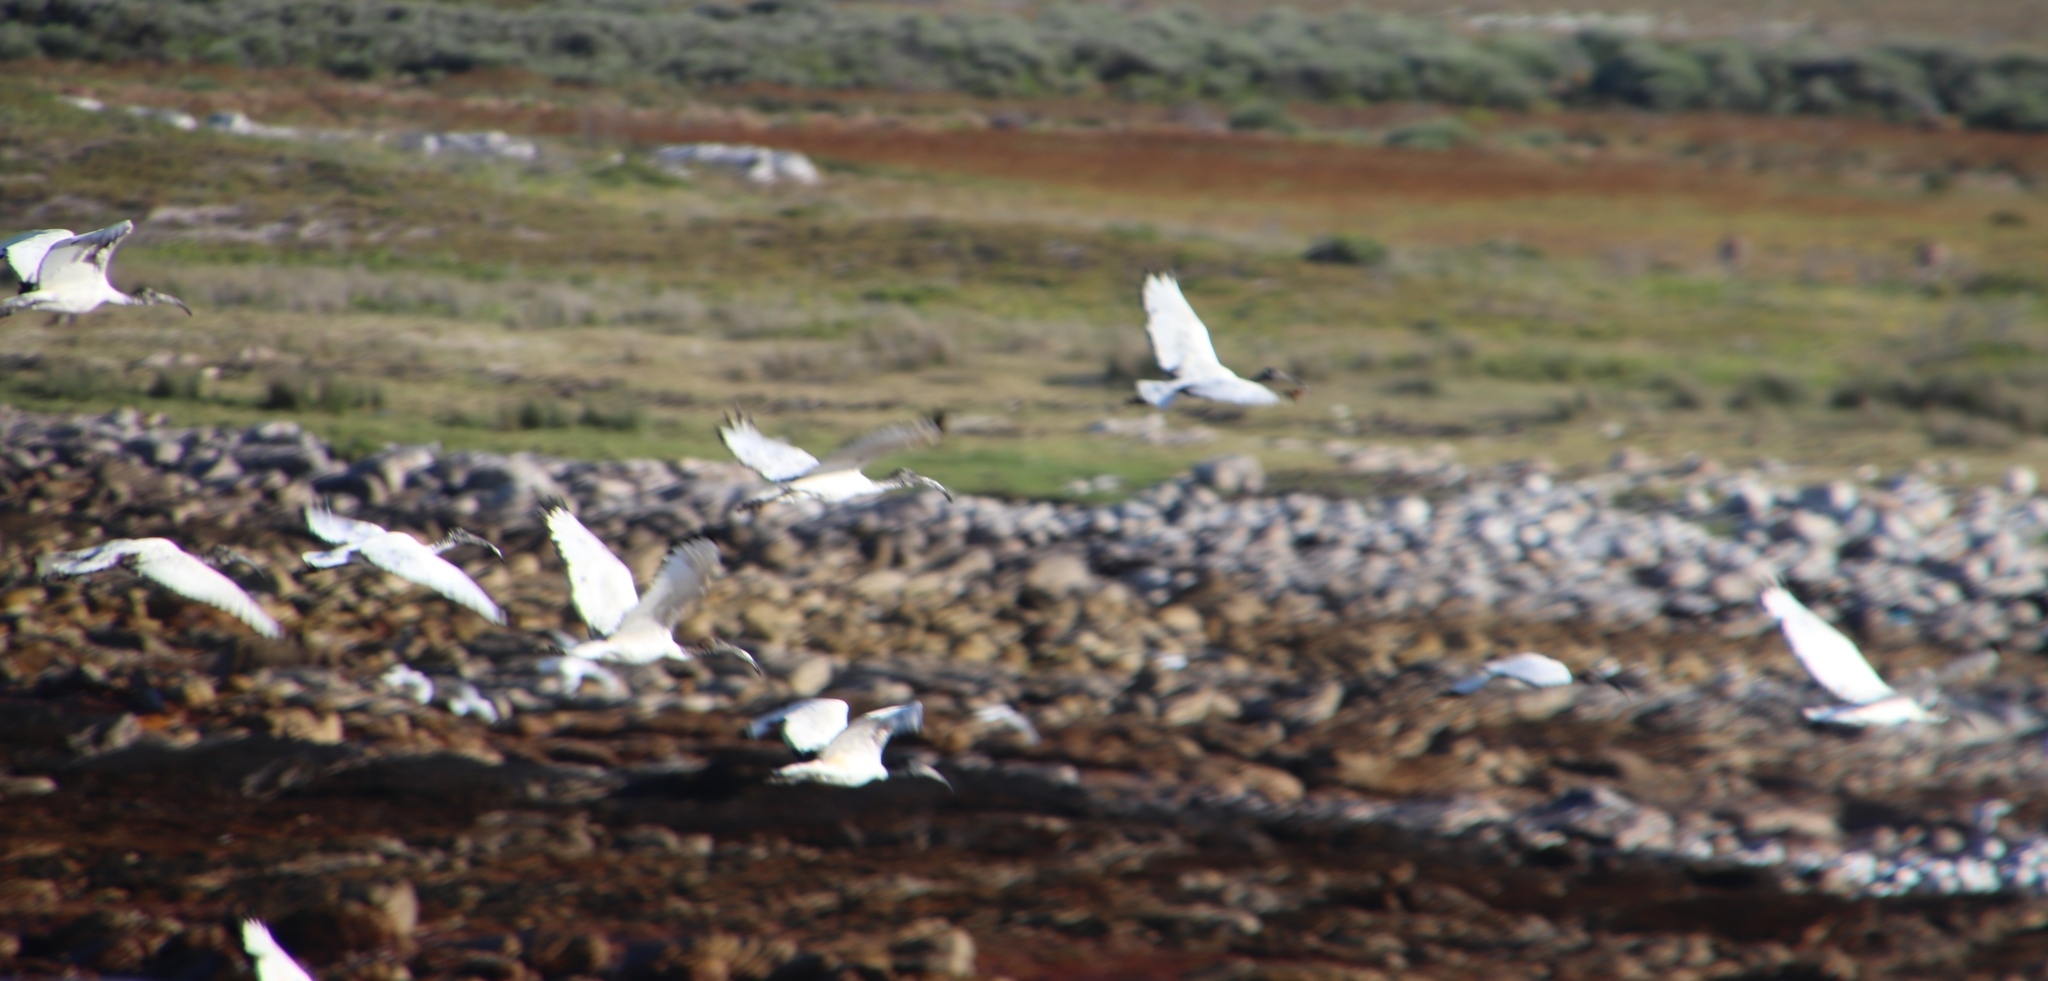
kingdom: Animalia
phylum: Chordata
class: Aves
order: Pelecaniformes
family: Threskiornithidae
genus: Threskiornis
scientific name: Threskiornis aethiopicus
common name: Sacred ibis
